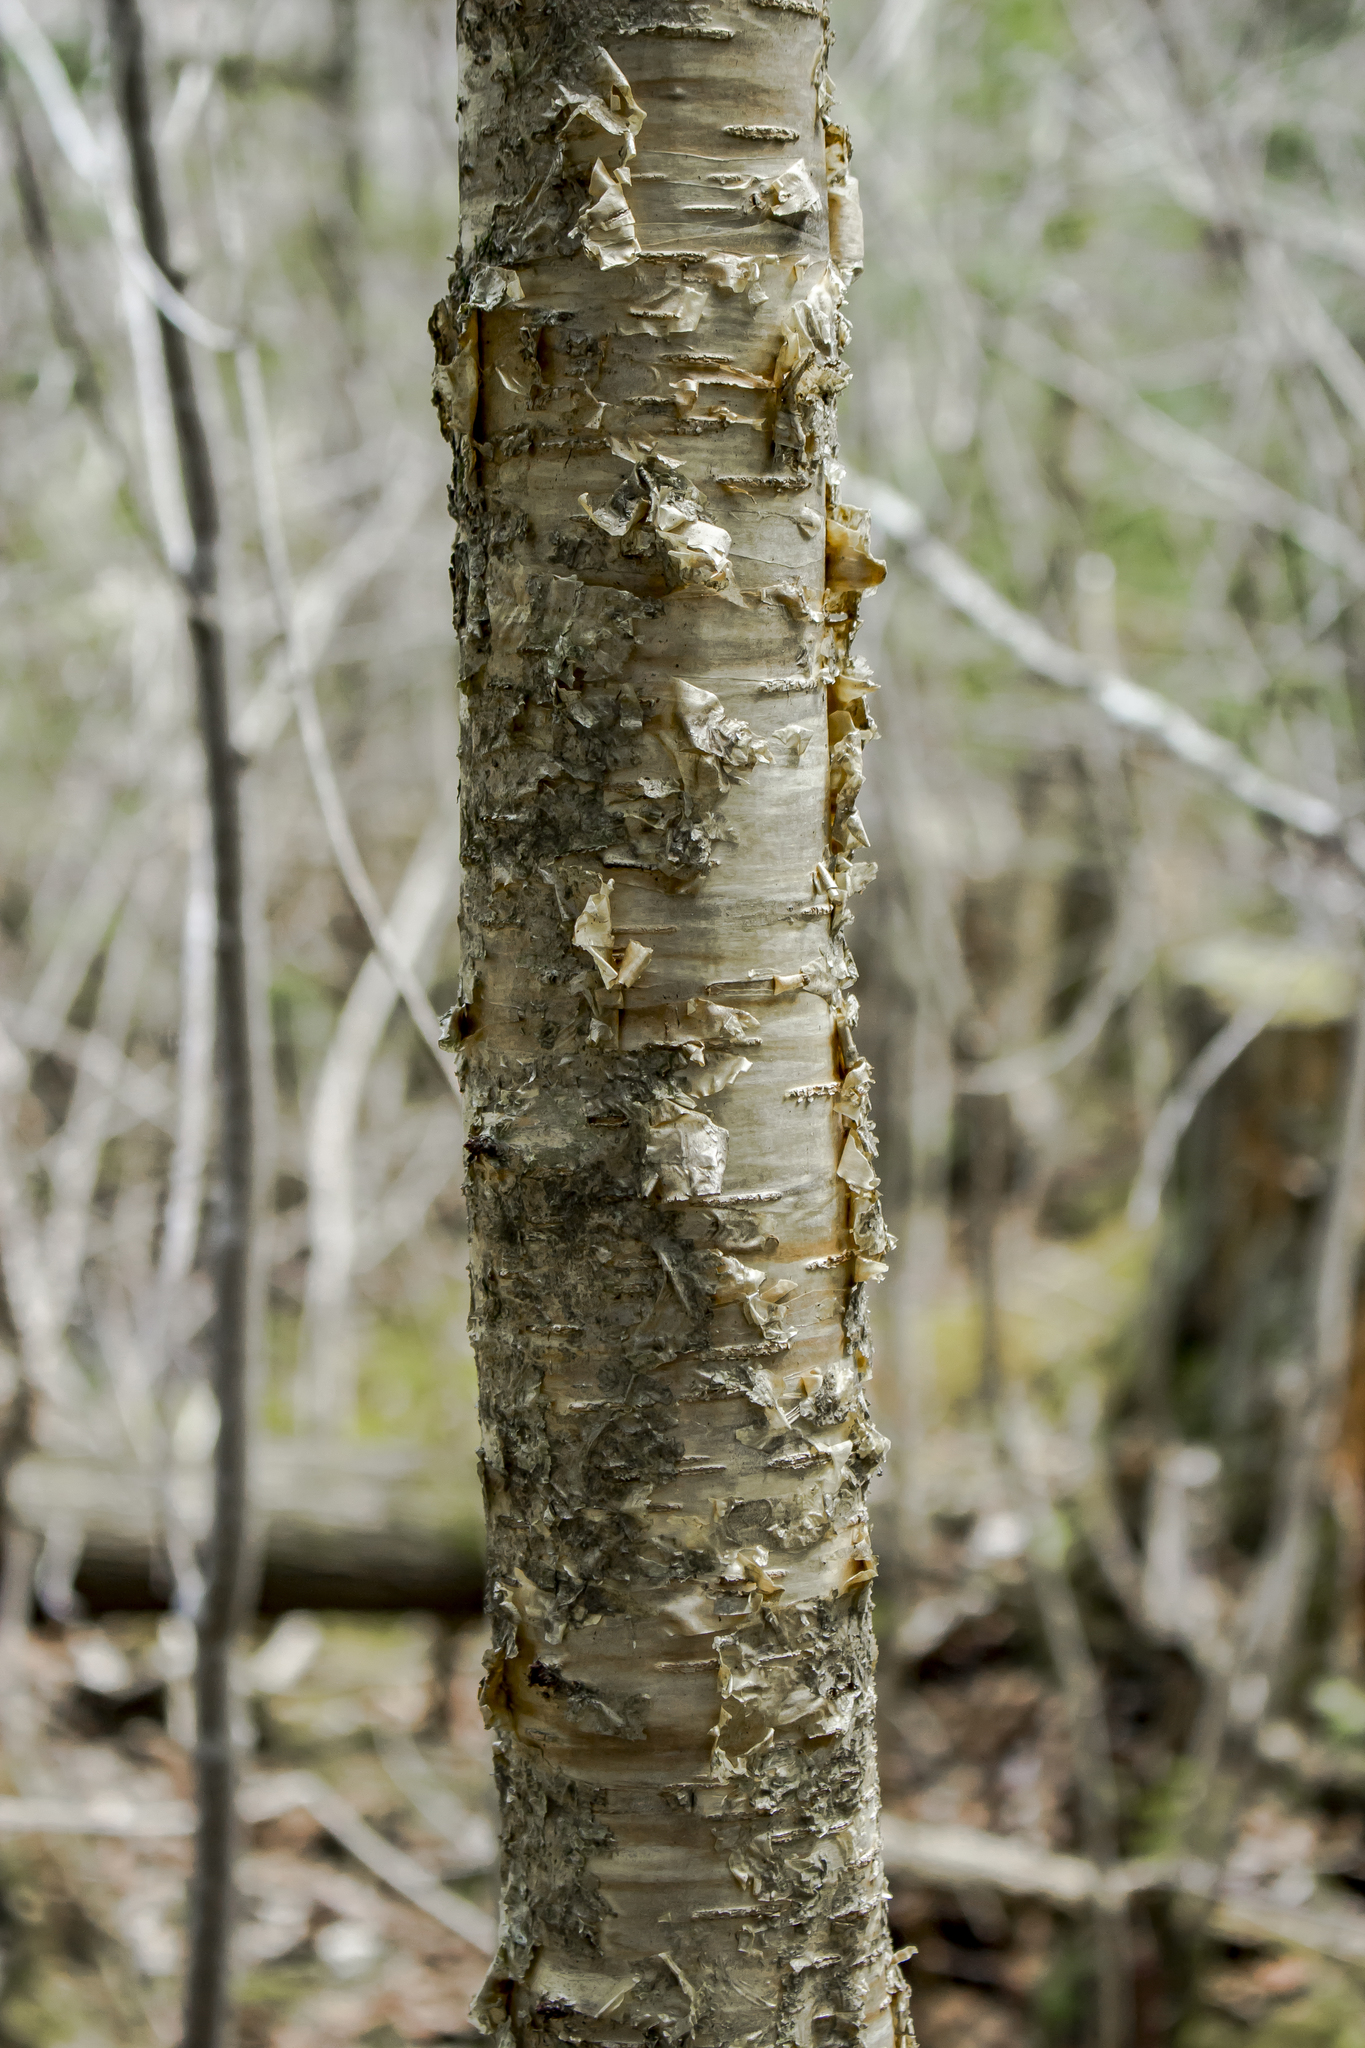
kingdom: Plantae
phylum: Tracheophyta
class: Magnoliopsida
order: Fagales
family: Betulaceae
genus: Betula
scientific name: Betula alleghaniensis
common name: Yellow birch
